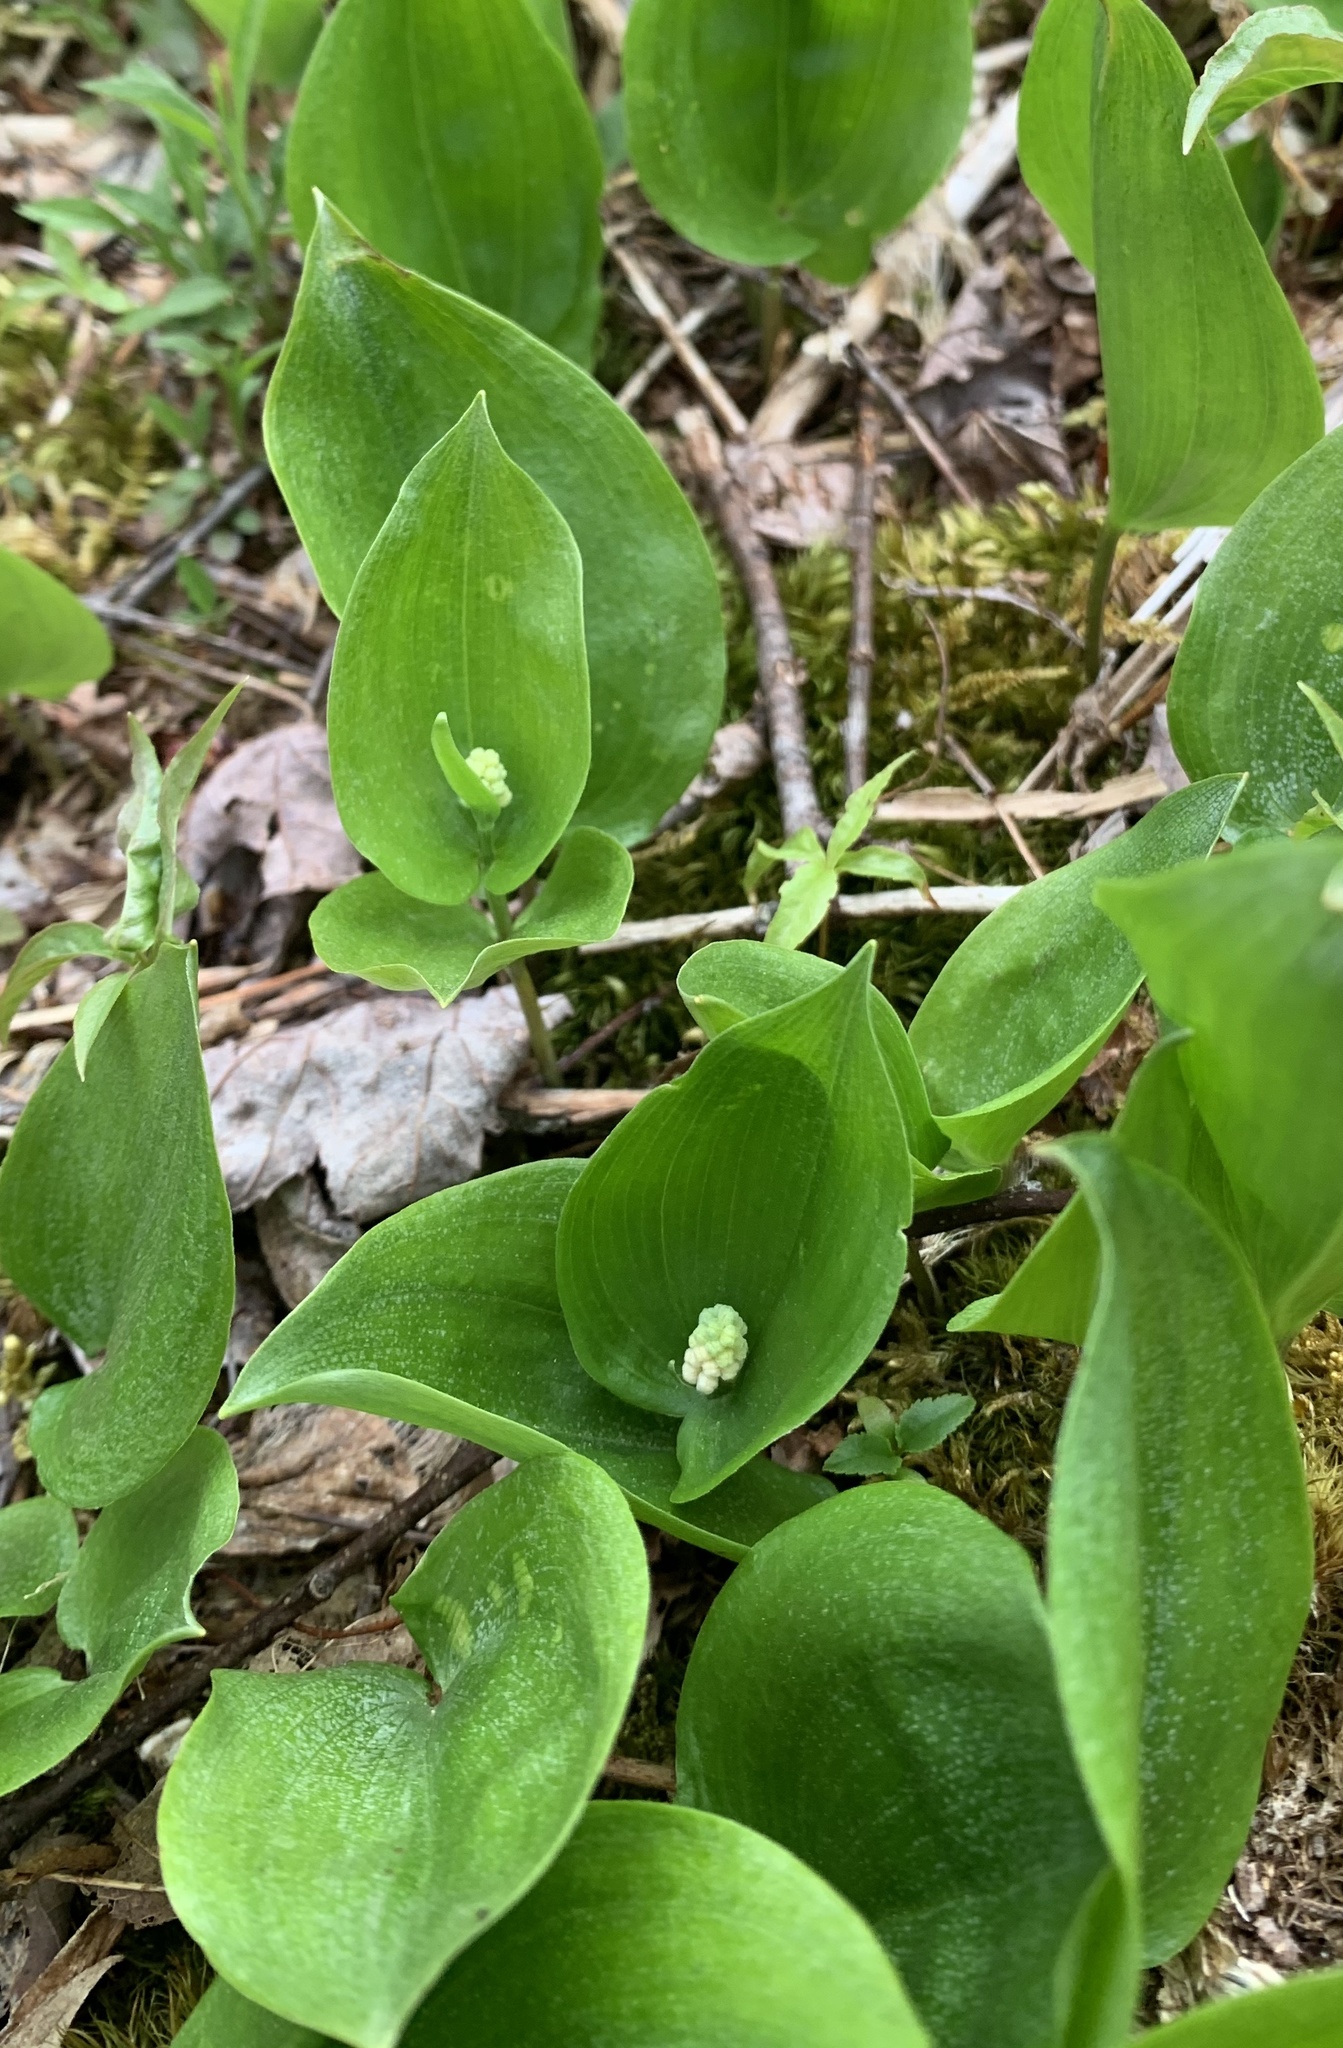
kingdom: Plantae
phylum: Tracheophyta
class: Liliopsida
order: Asparagales
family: Asparagaceae
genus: Maianthemum
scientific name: Maianthemum canadense
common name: False lily-of-the-valley
